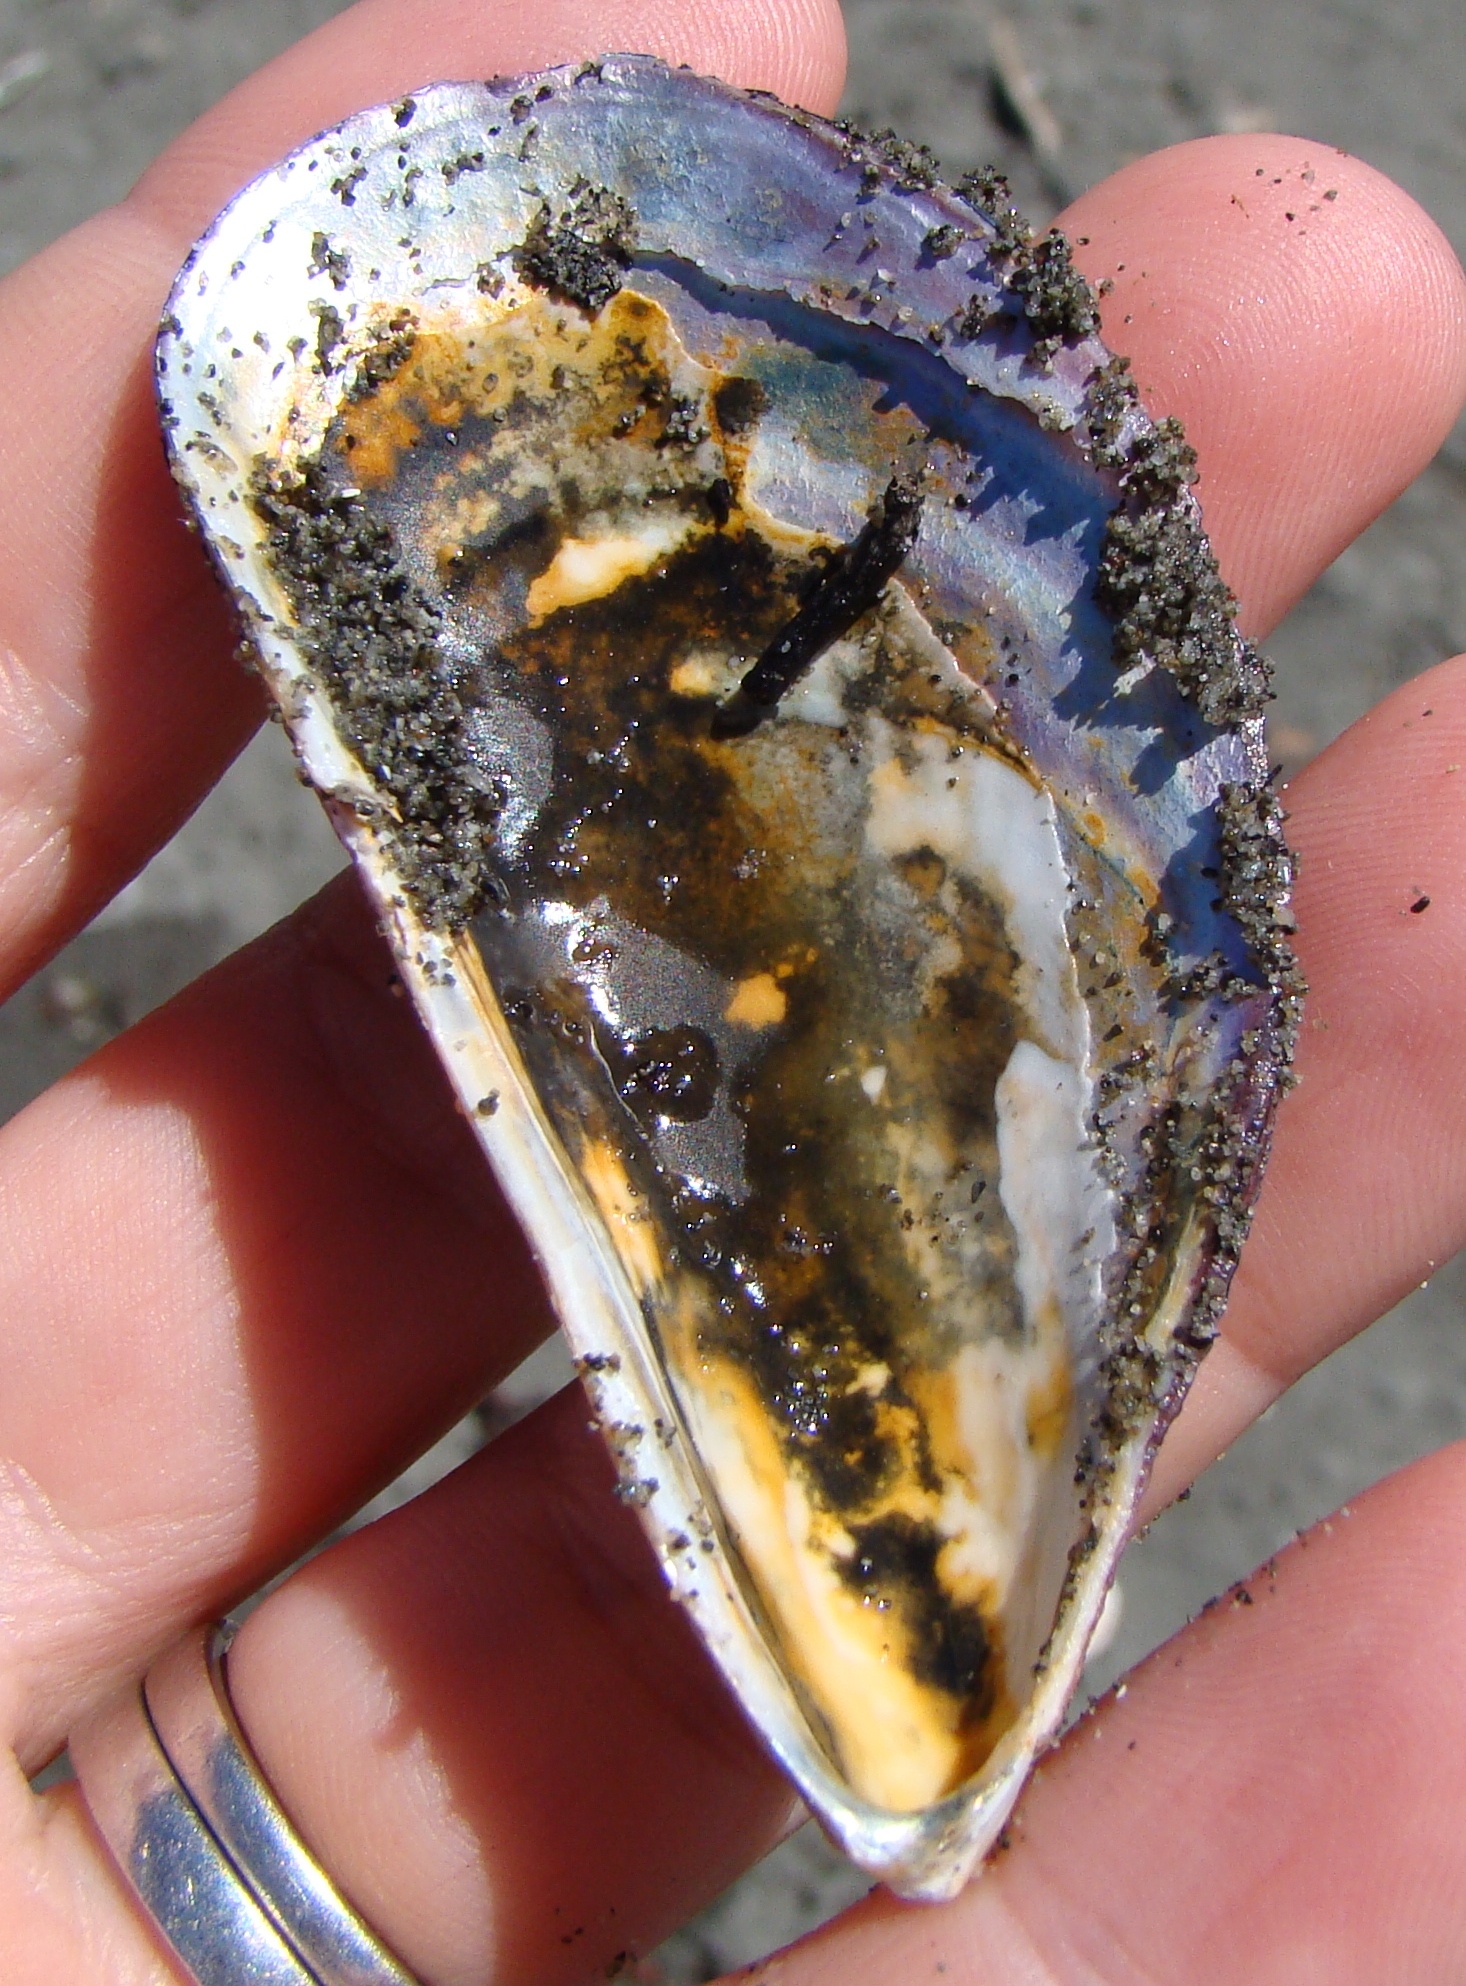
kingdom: Animalia
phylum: Mollusca
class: Bivalvia
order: Mytilida
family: Mytilidae
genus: Aulacomya
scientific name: Aulacomya maoriana
